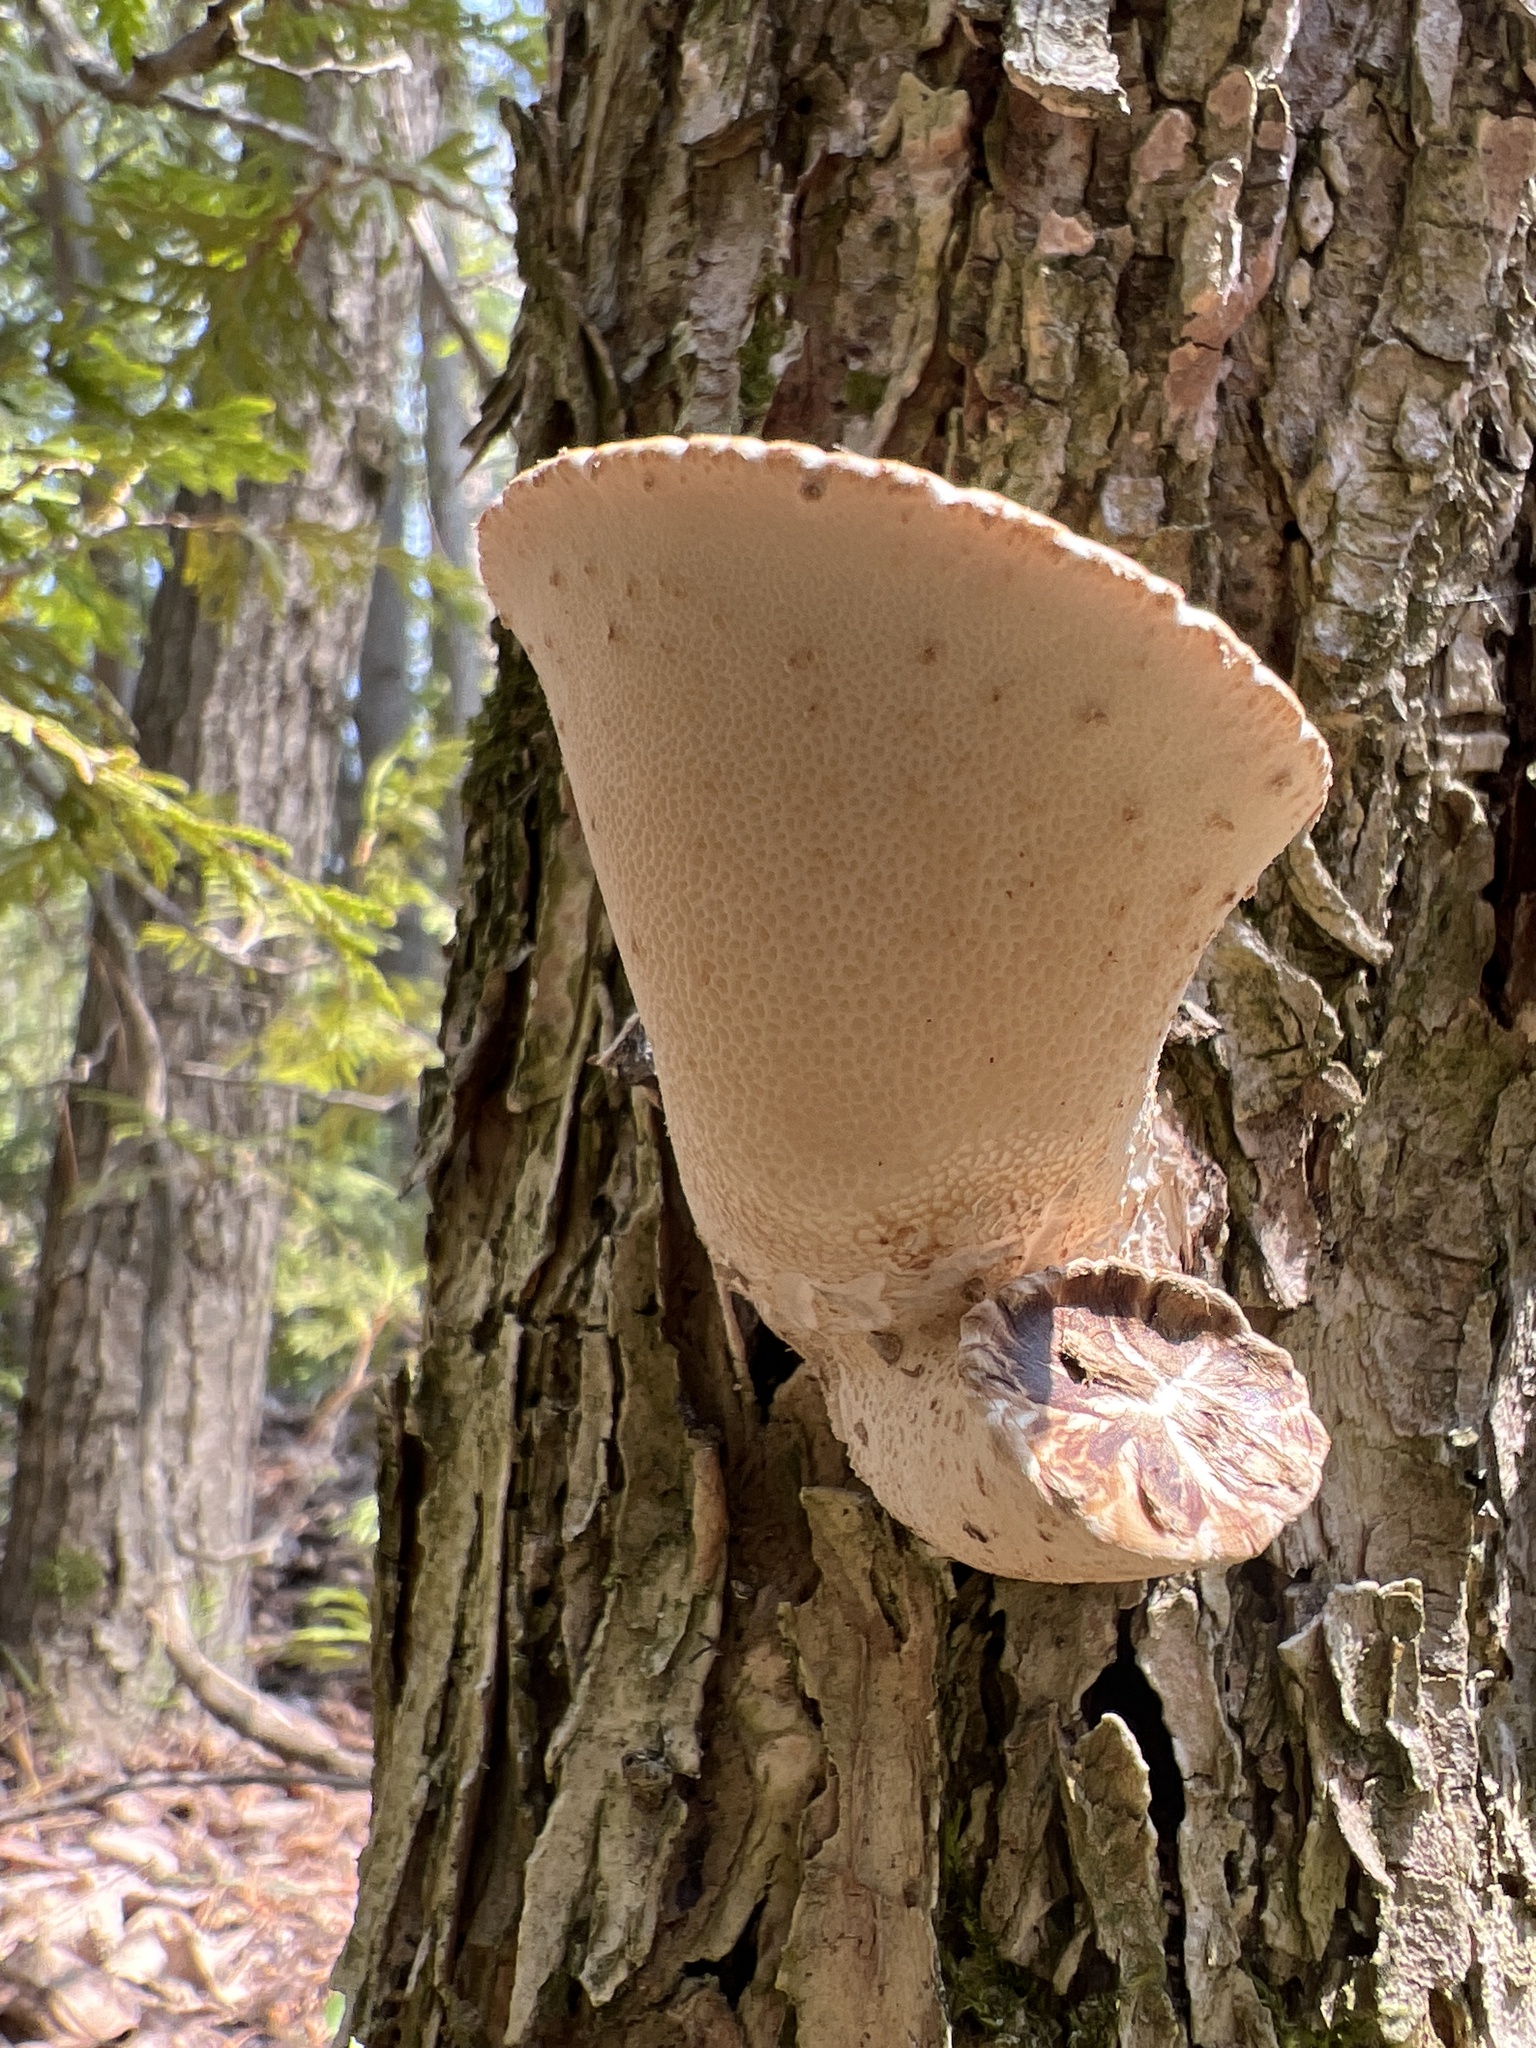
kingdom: Fungi
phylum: Basidiomycota
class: Agaricomycetes
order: Polyporales
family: Polyporaceae
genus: Cerioporus
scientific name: Cerioporus squamosus
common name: Dryad's saddle
